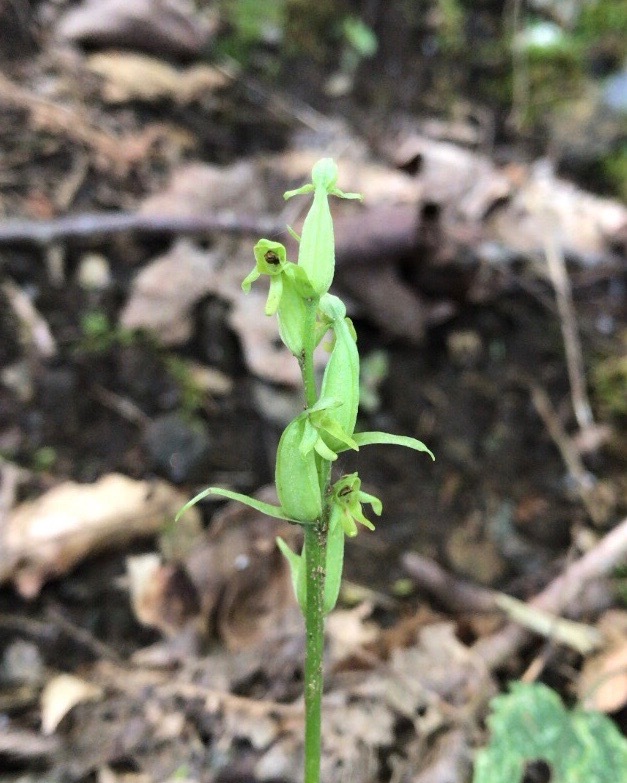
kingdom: Plantae
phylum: Tracheophyta
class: Liliopsida
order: Asparagales
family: Orchidaceae
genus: Platanthera
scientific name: Platanthera aquilonis
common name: Northern green orchid
